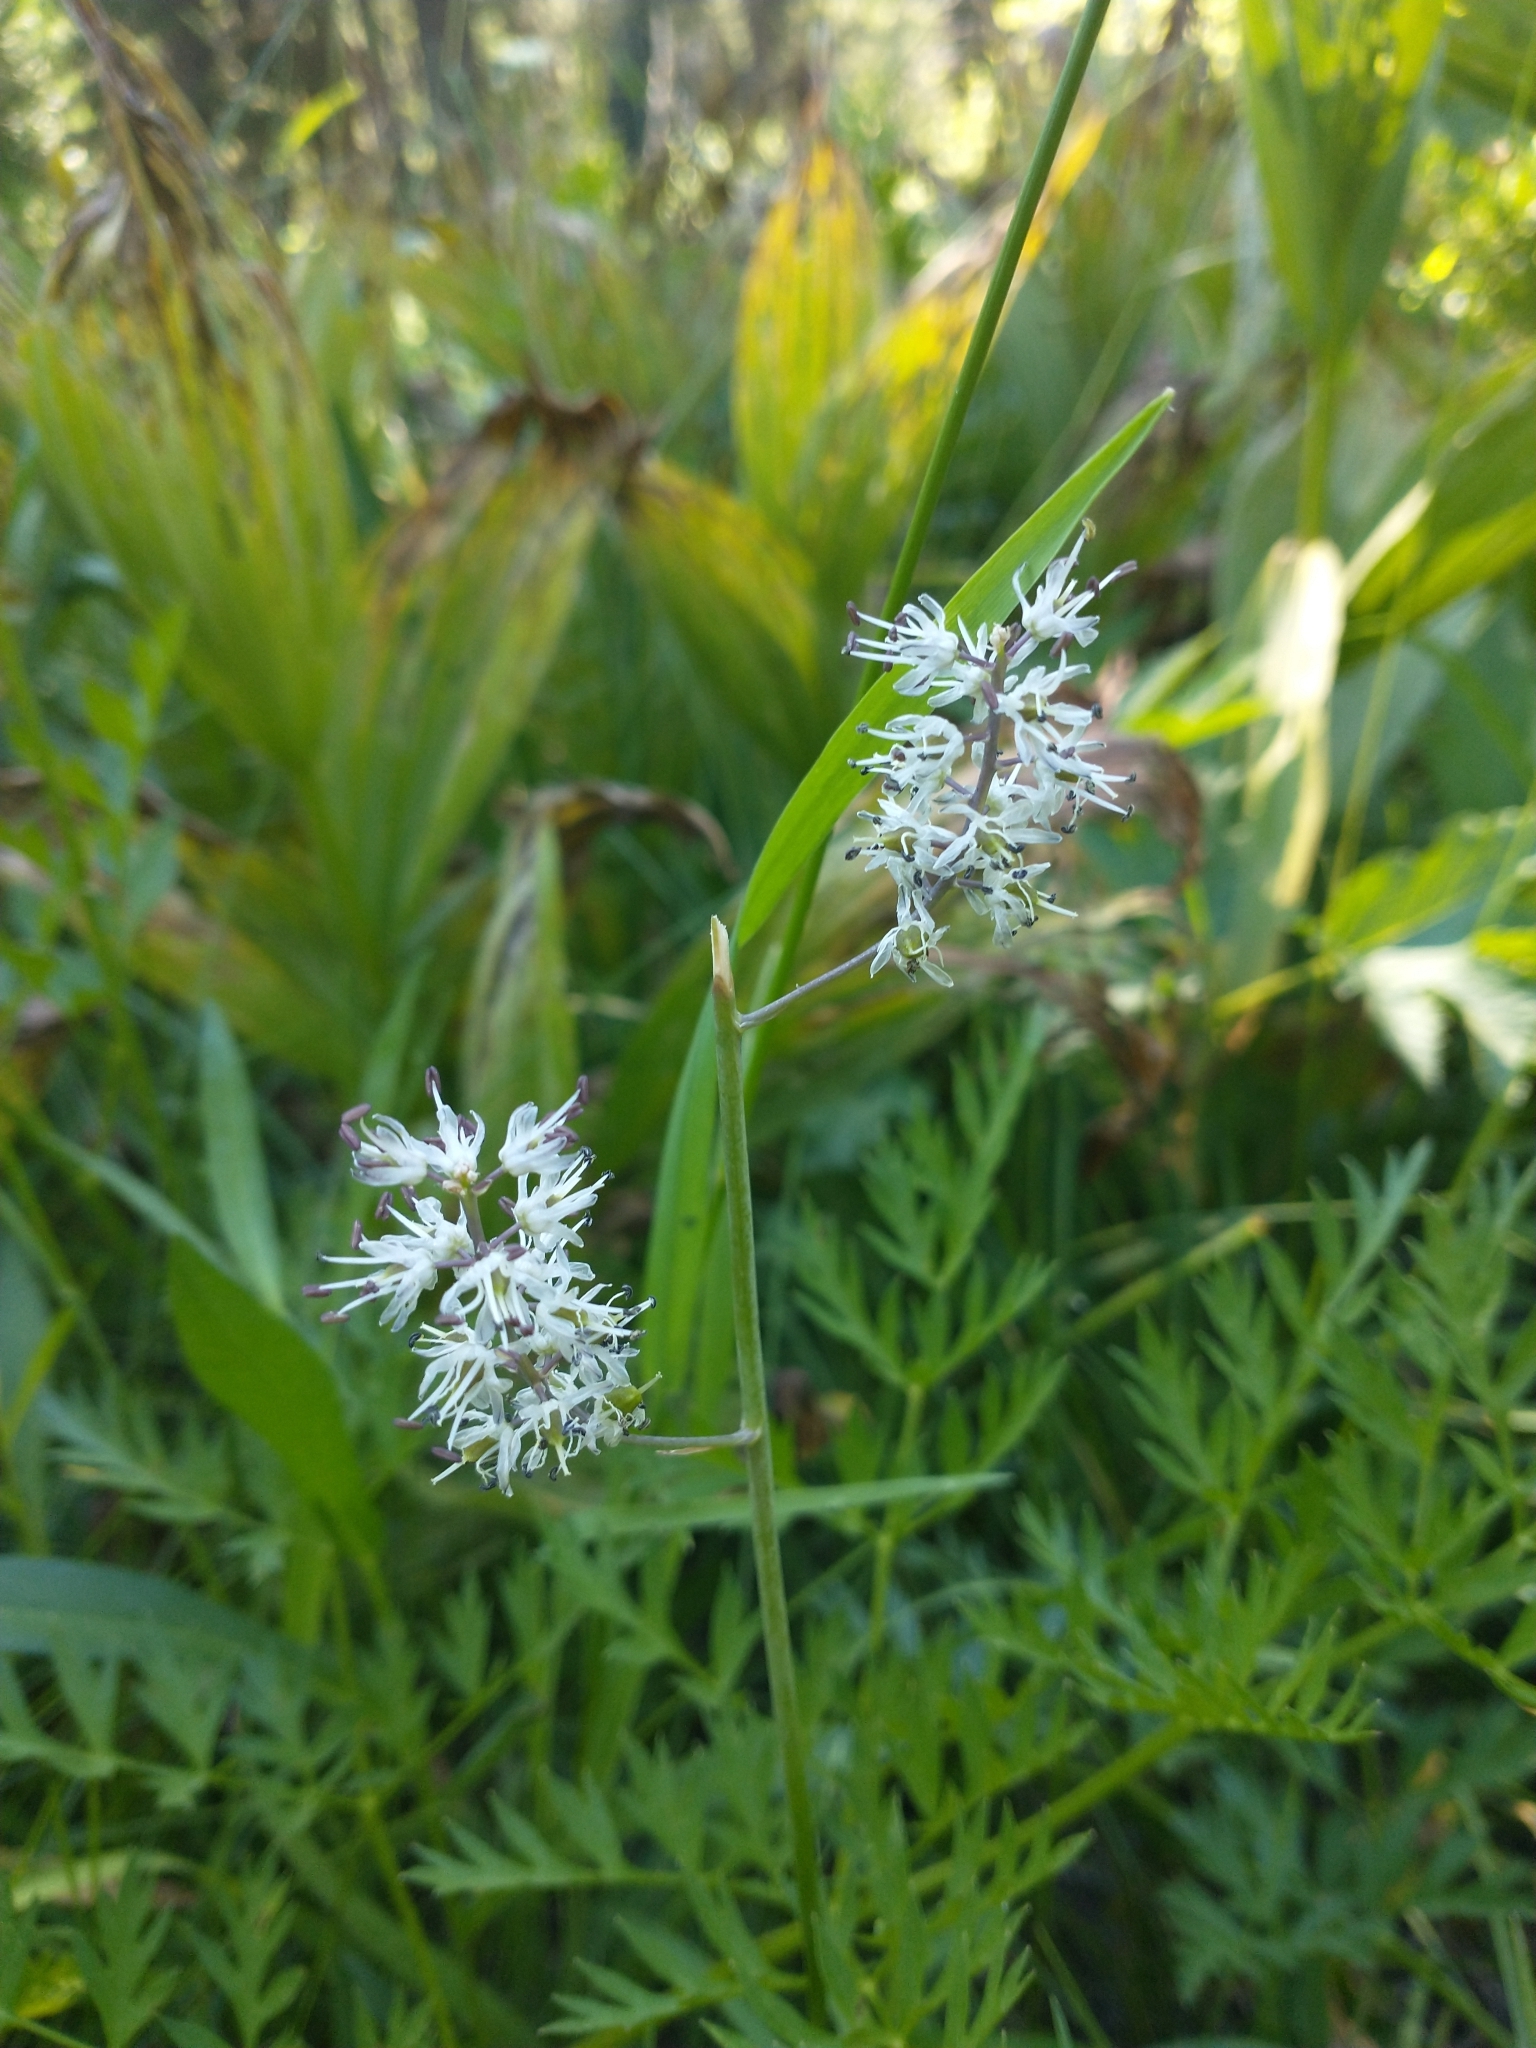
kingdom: Plantae
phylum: Tracheophyta
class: Liliopsida
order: Asparagales
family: Asparagaceae
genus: Hastingsia
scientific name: Hastingsia alba
